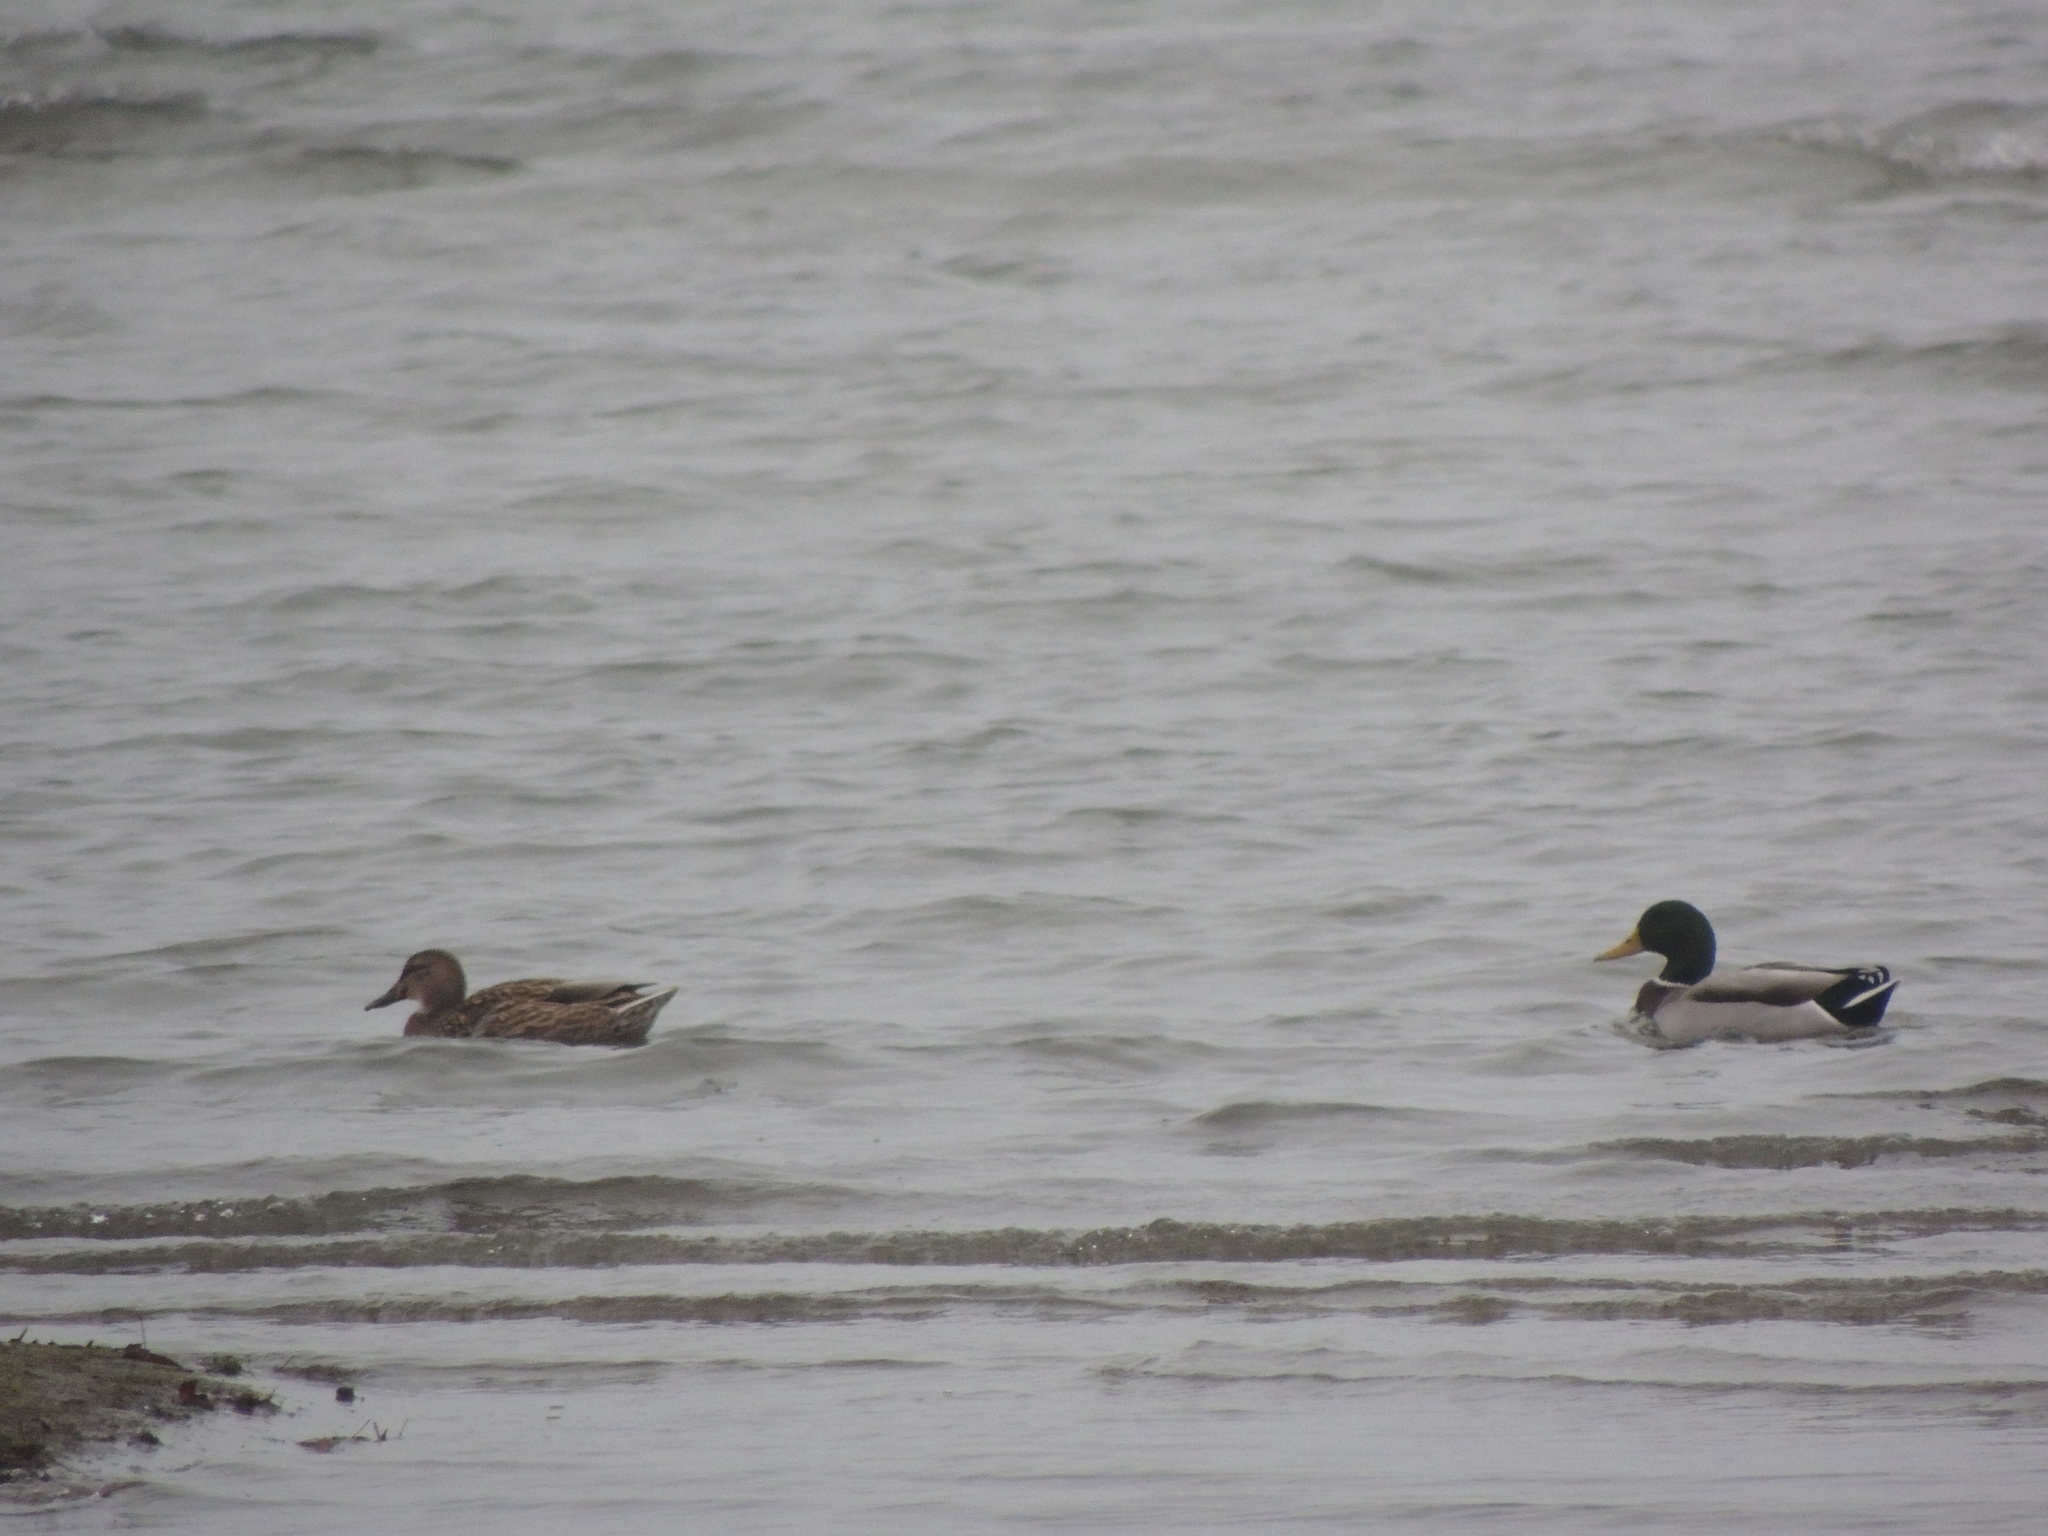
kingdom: Animalia
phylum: Chordata
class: Aves
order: Anseriformes
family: Anatidae
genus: Anas
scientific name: Anas platyrhynchos
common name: Mallard
